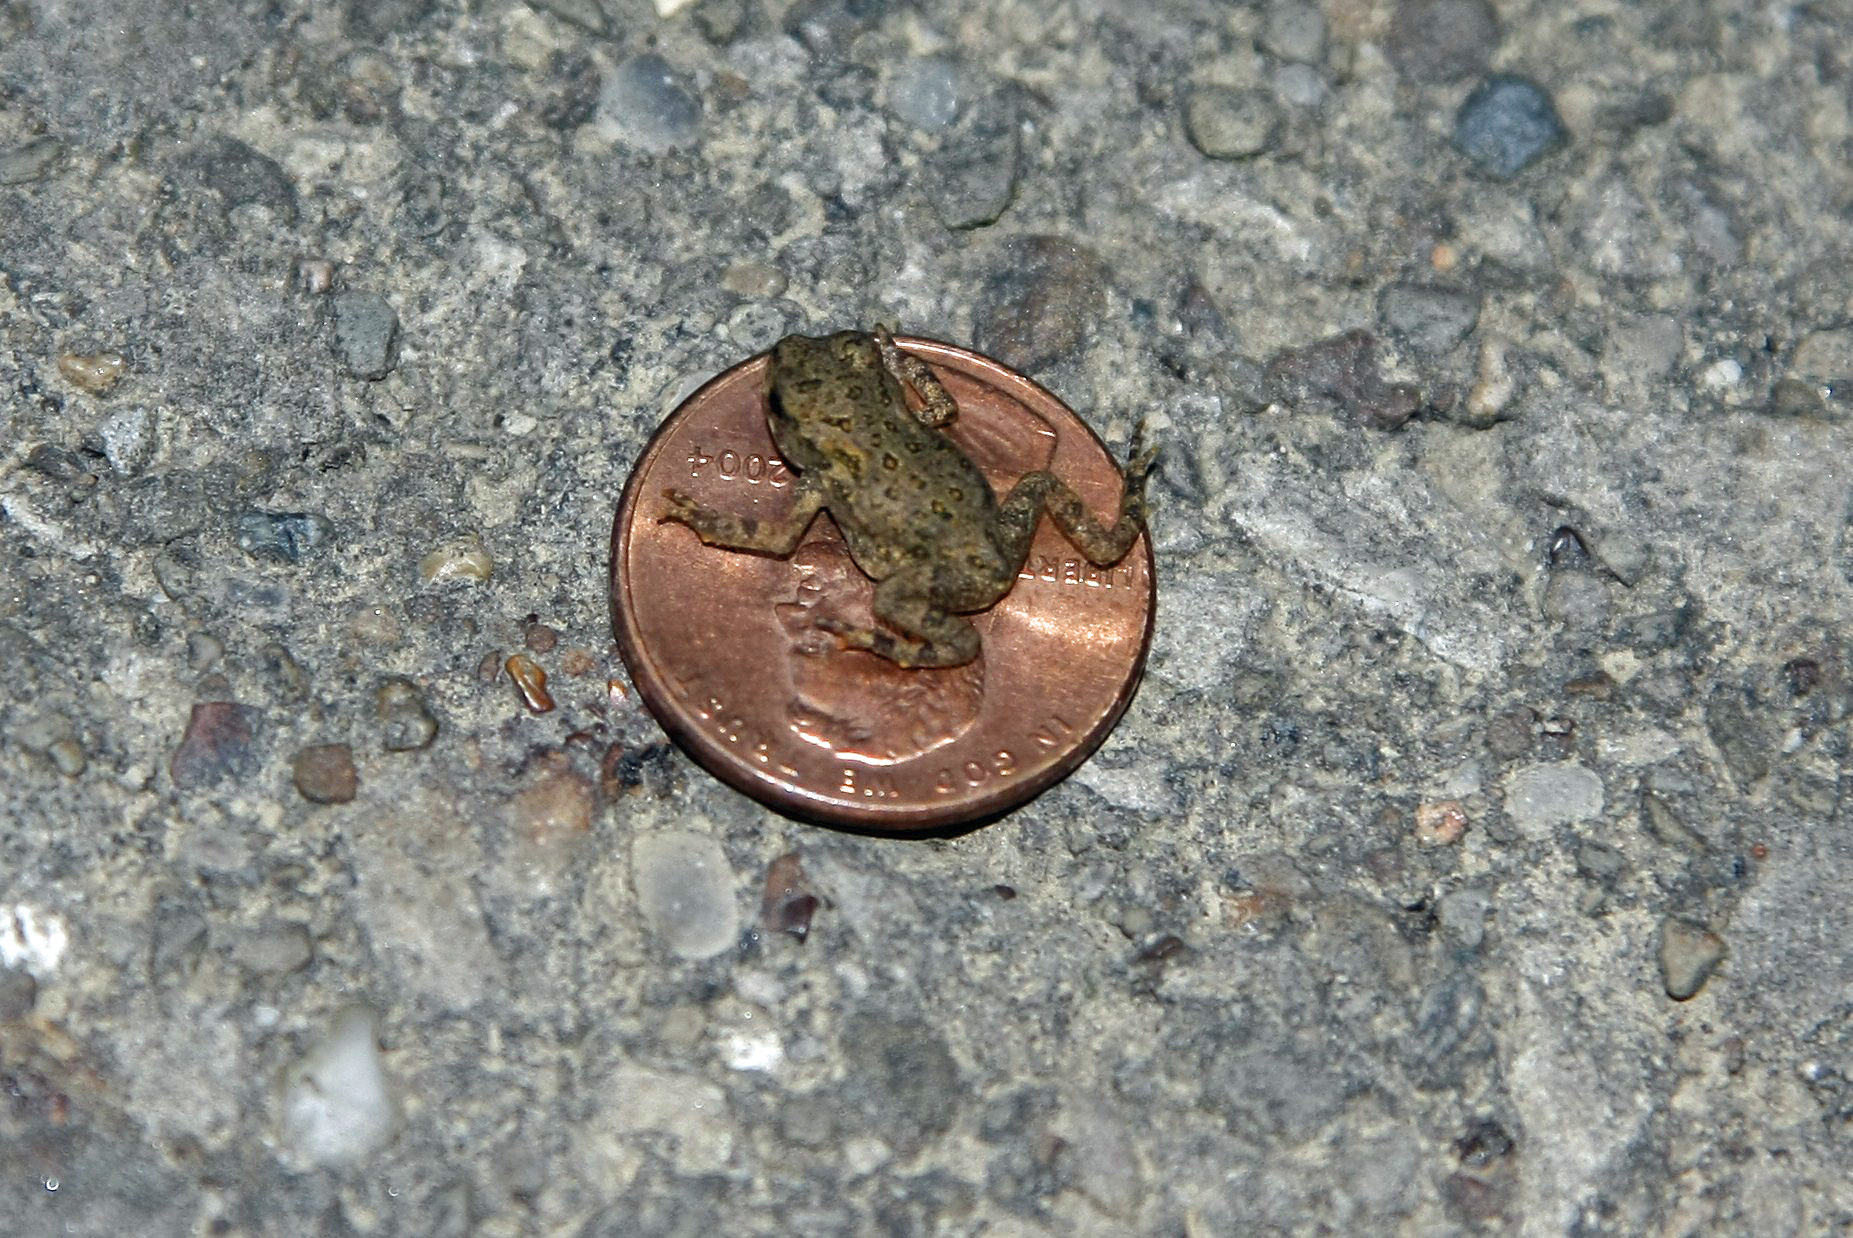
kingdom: Animalia
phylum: Chordata
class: Amphibia
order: Anura
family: Bufonidae
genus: Anaxyrus
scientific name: Anaxyrus americanus
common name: American toad
